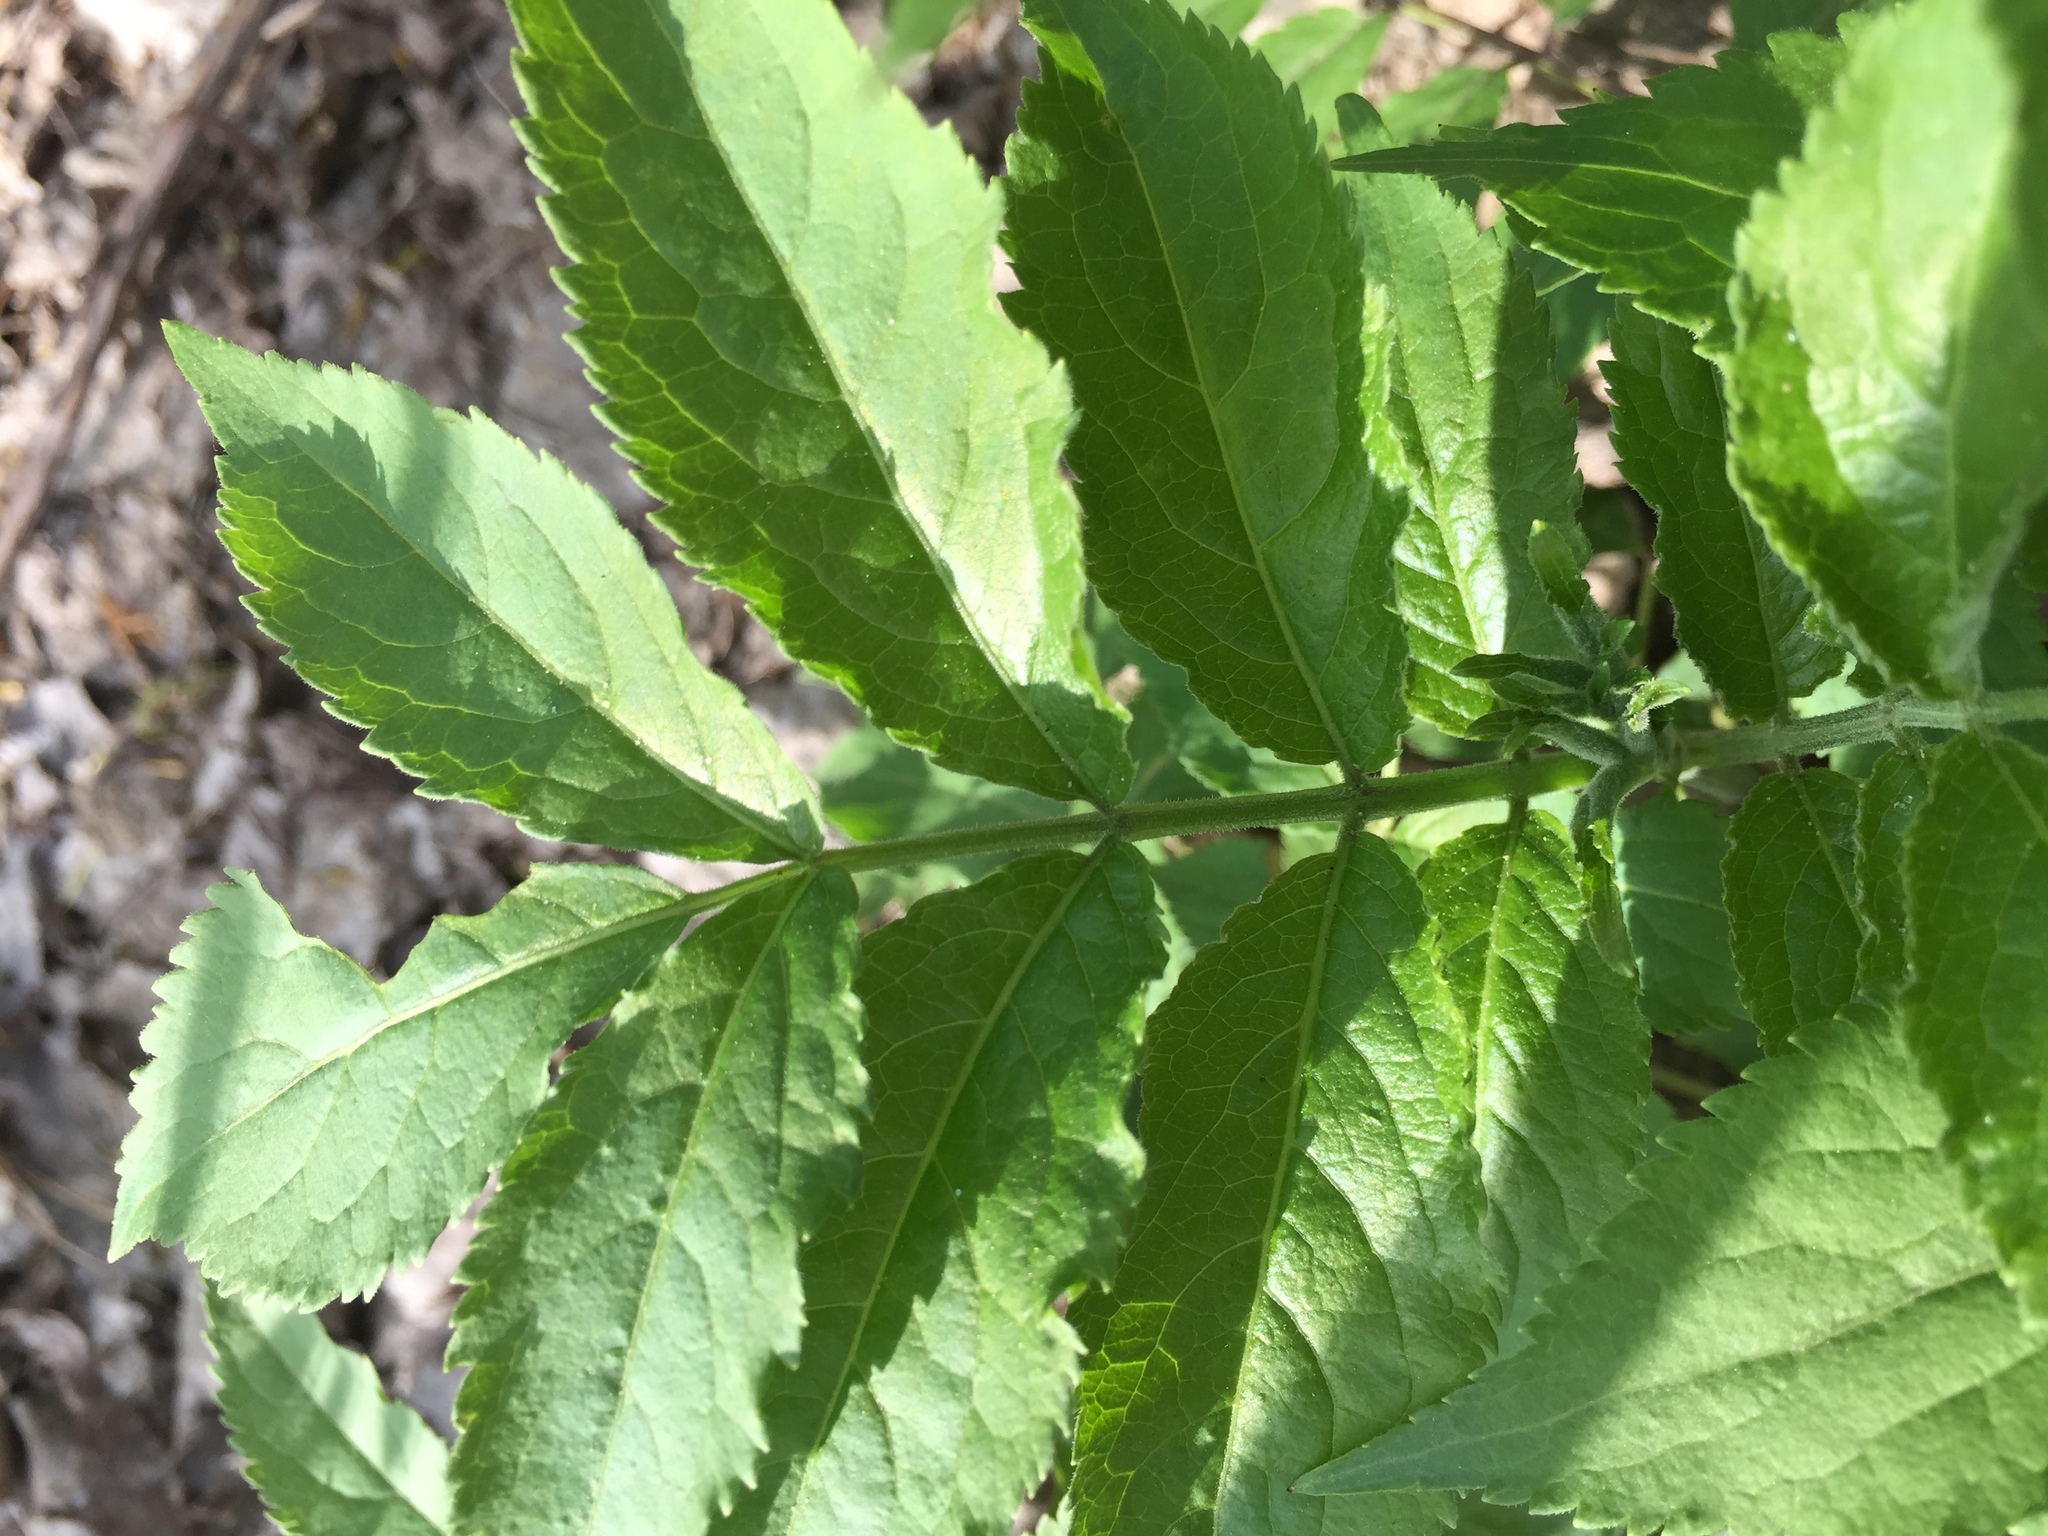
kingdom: Plantae
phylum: Tracheophyta
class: Magnoliopsida
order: Dipsacales
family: Viburnaceae
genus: Sambucus
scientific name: Sambucus
